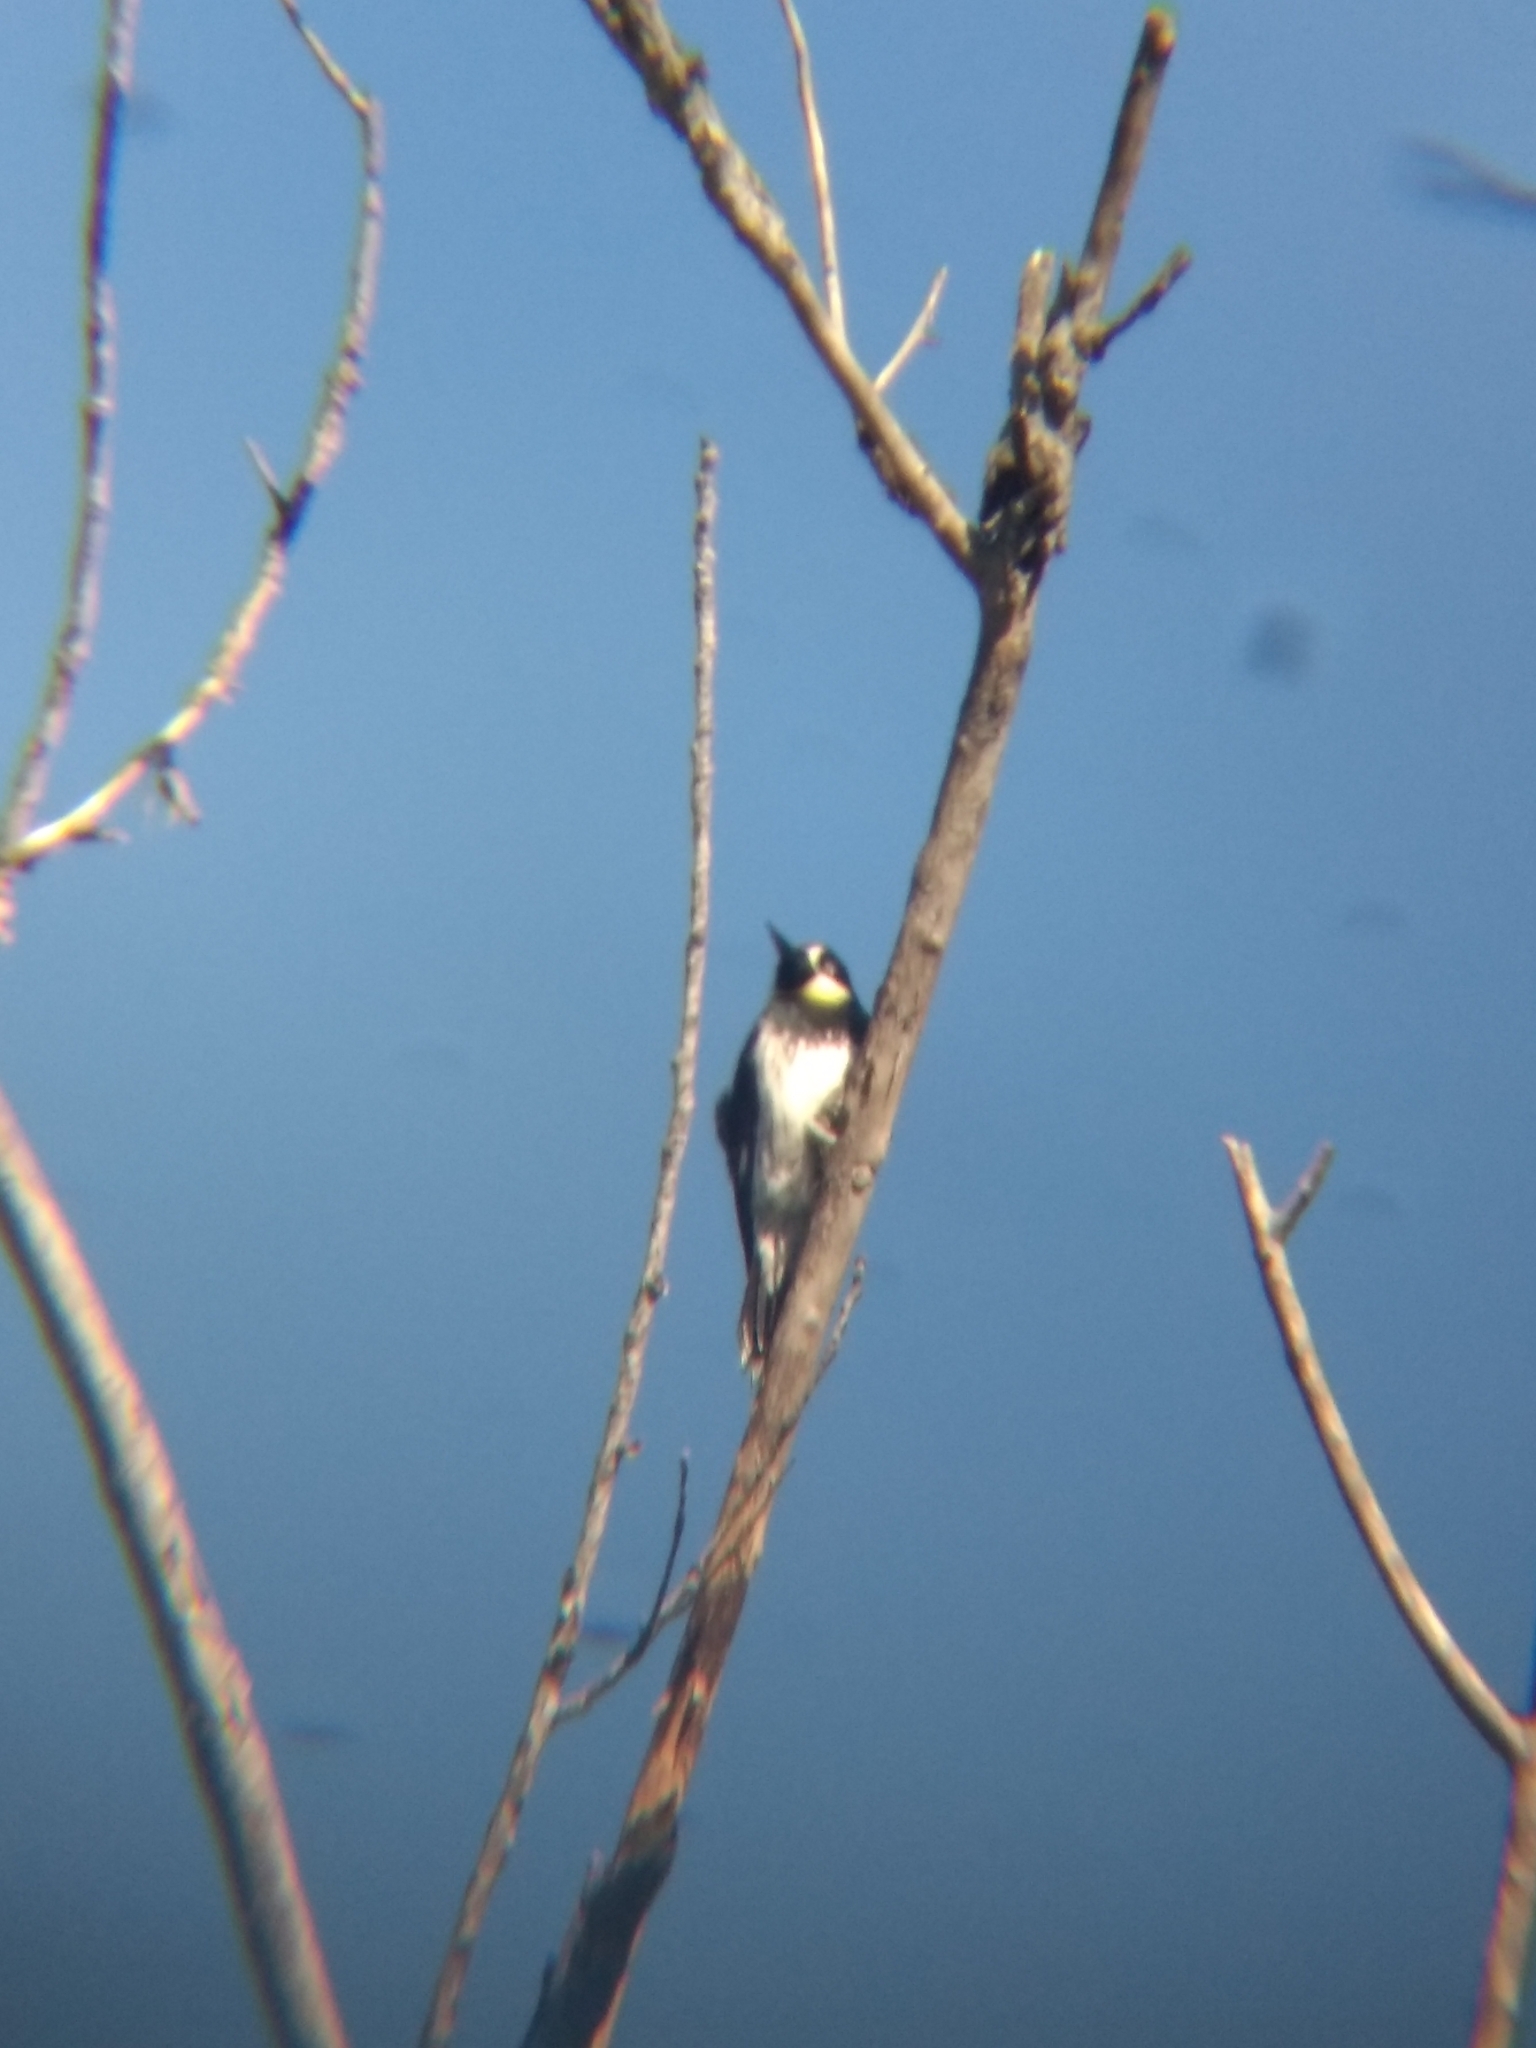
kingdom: Animalia
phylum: Chordata
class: Aves
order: Piciformes
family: Picidae
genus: Melanerpes
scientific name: Melanerpes formicivorus
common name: Acorn woodpecker
